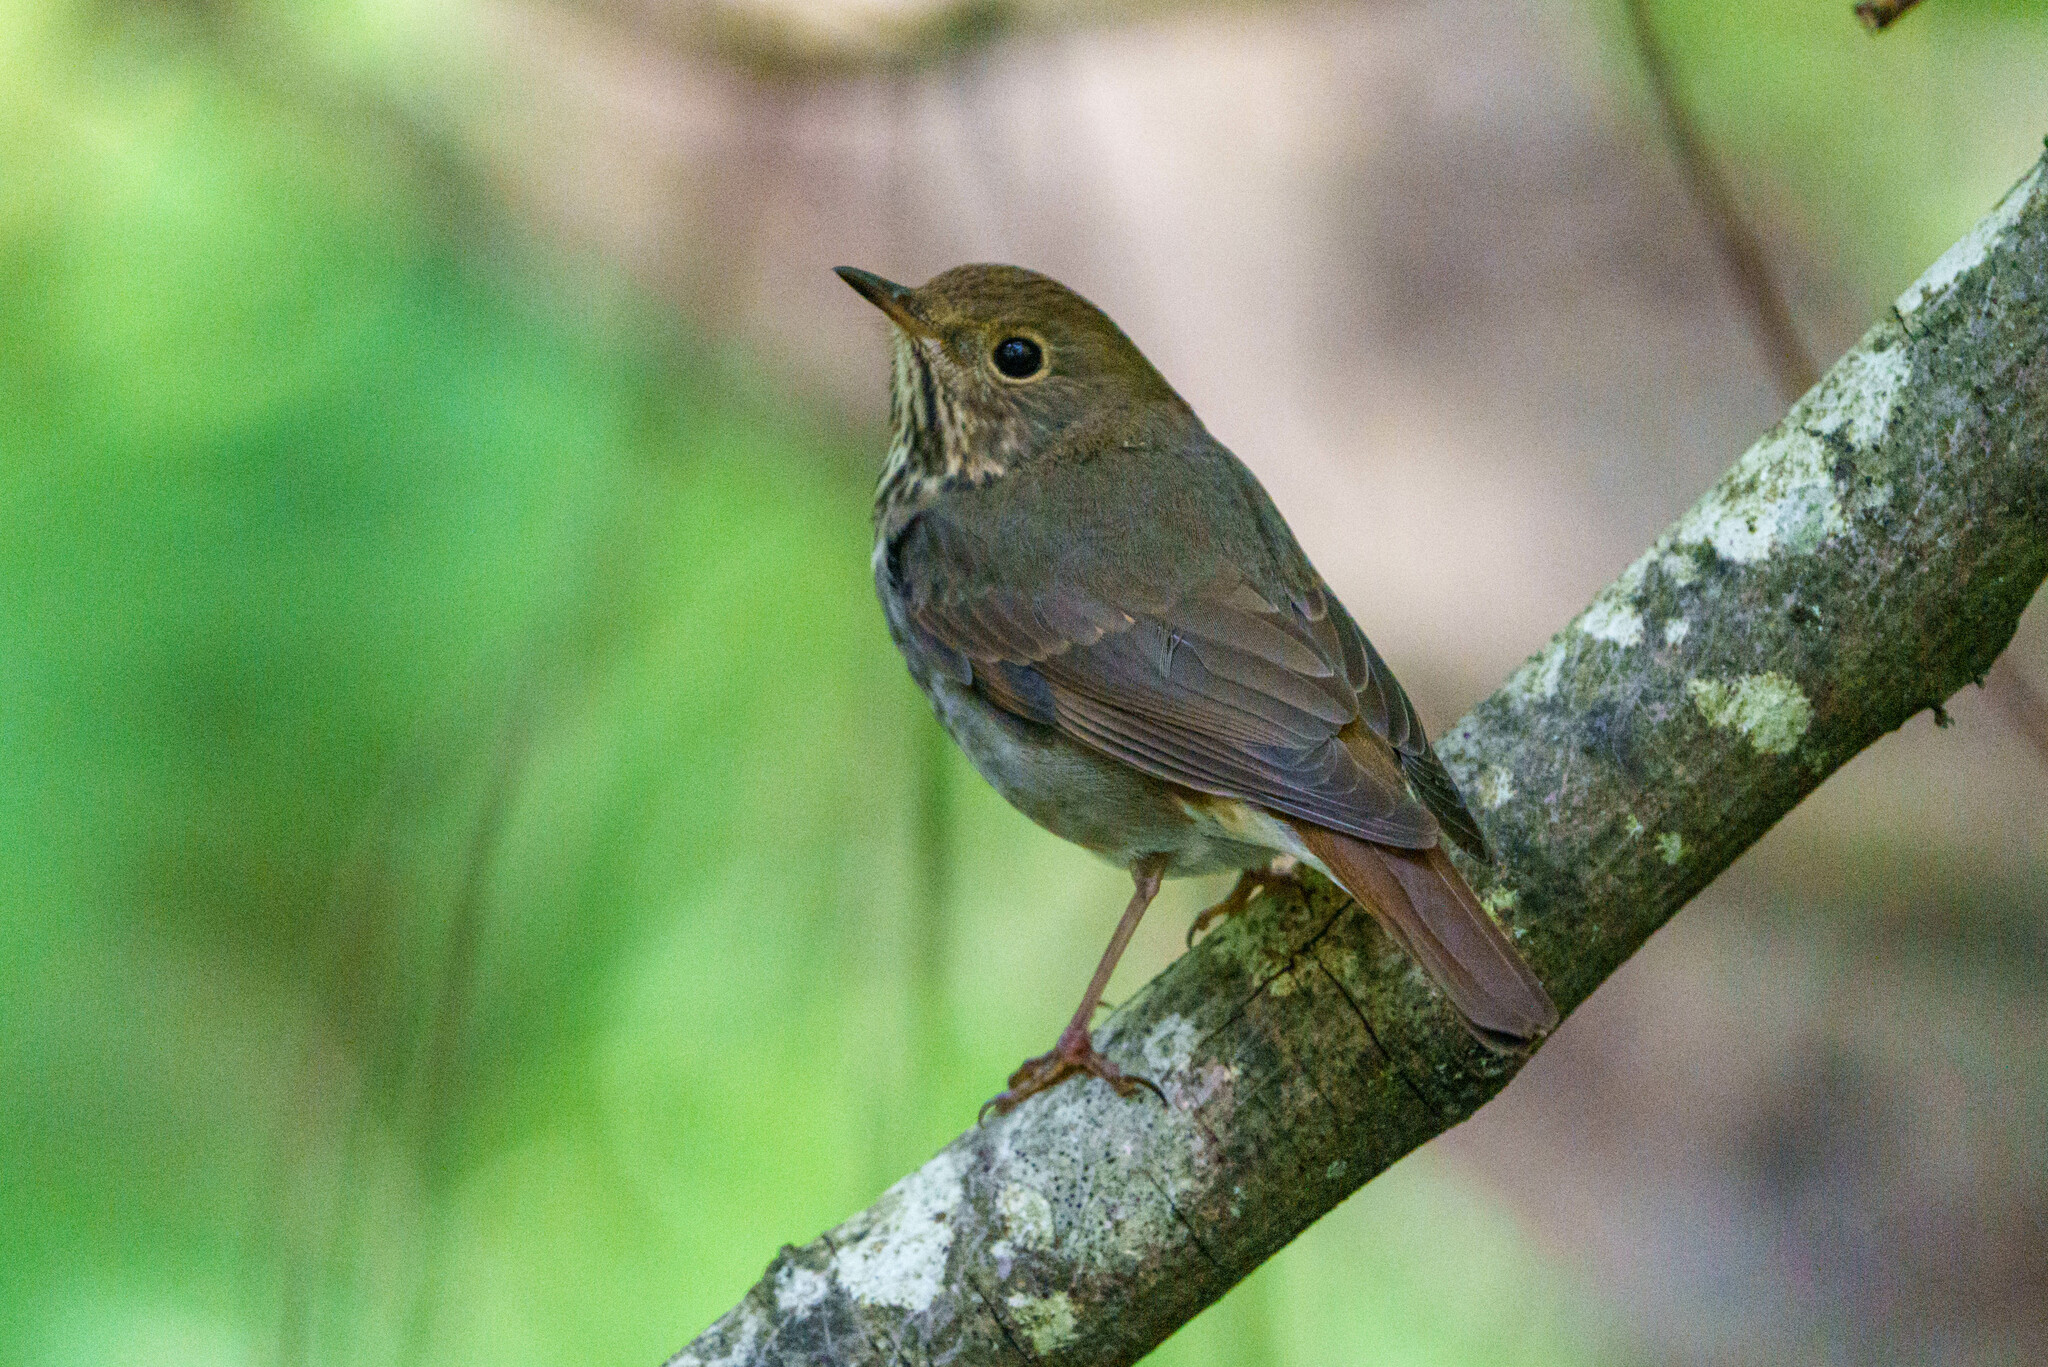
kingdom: Animalia
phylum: Chordata
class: Aves
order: Passeriformes
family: Turdidae
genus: Catharus
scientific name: Catharus guttatus
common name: Hermit thrush
